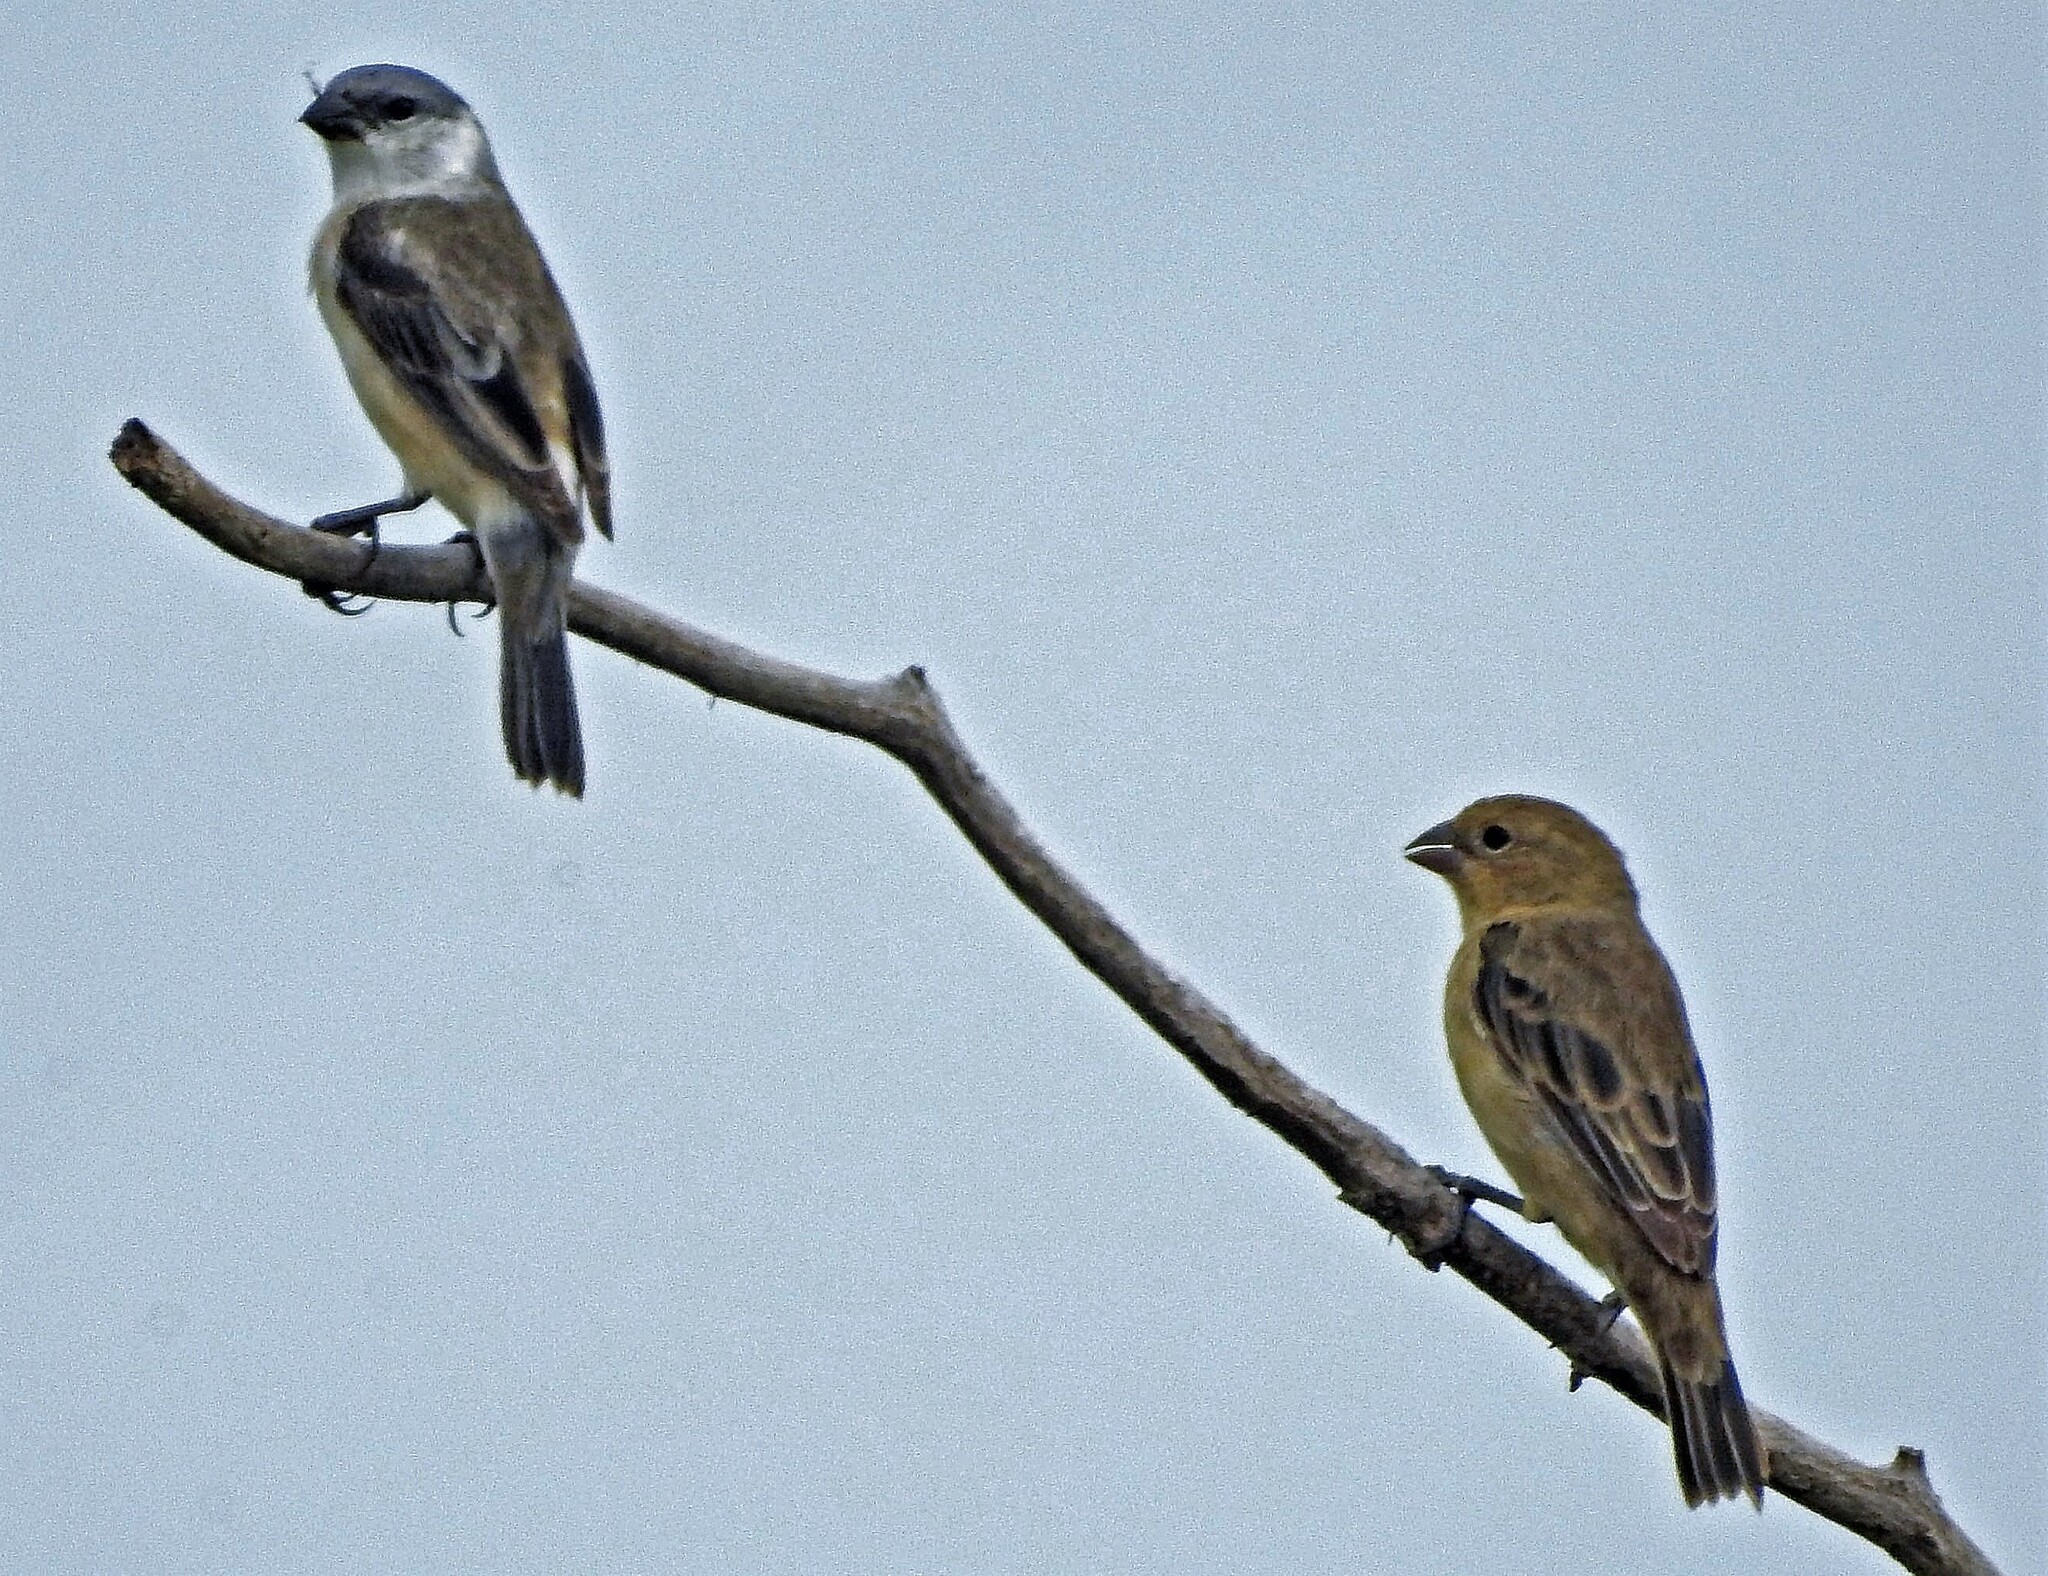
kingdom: Animalia
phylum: Chordata
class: Aves
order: Passeriformes
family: Thraupidae
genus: Sporophila
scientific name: Sporophila pileata
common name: Pearly-bellied seedeater
